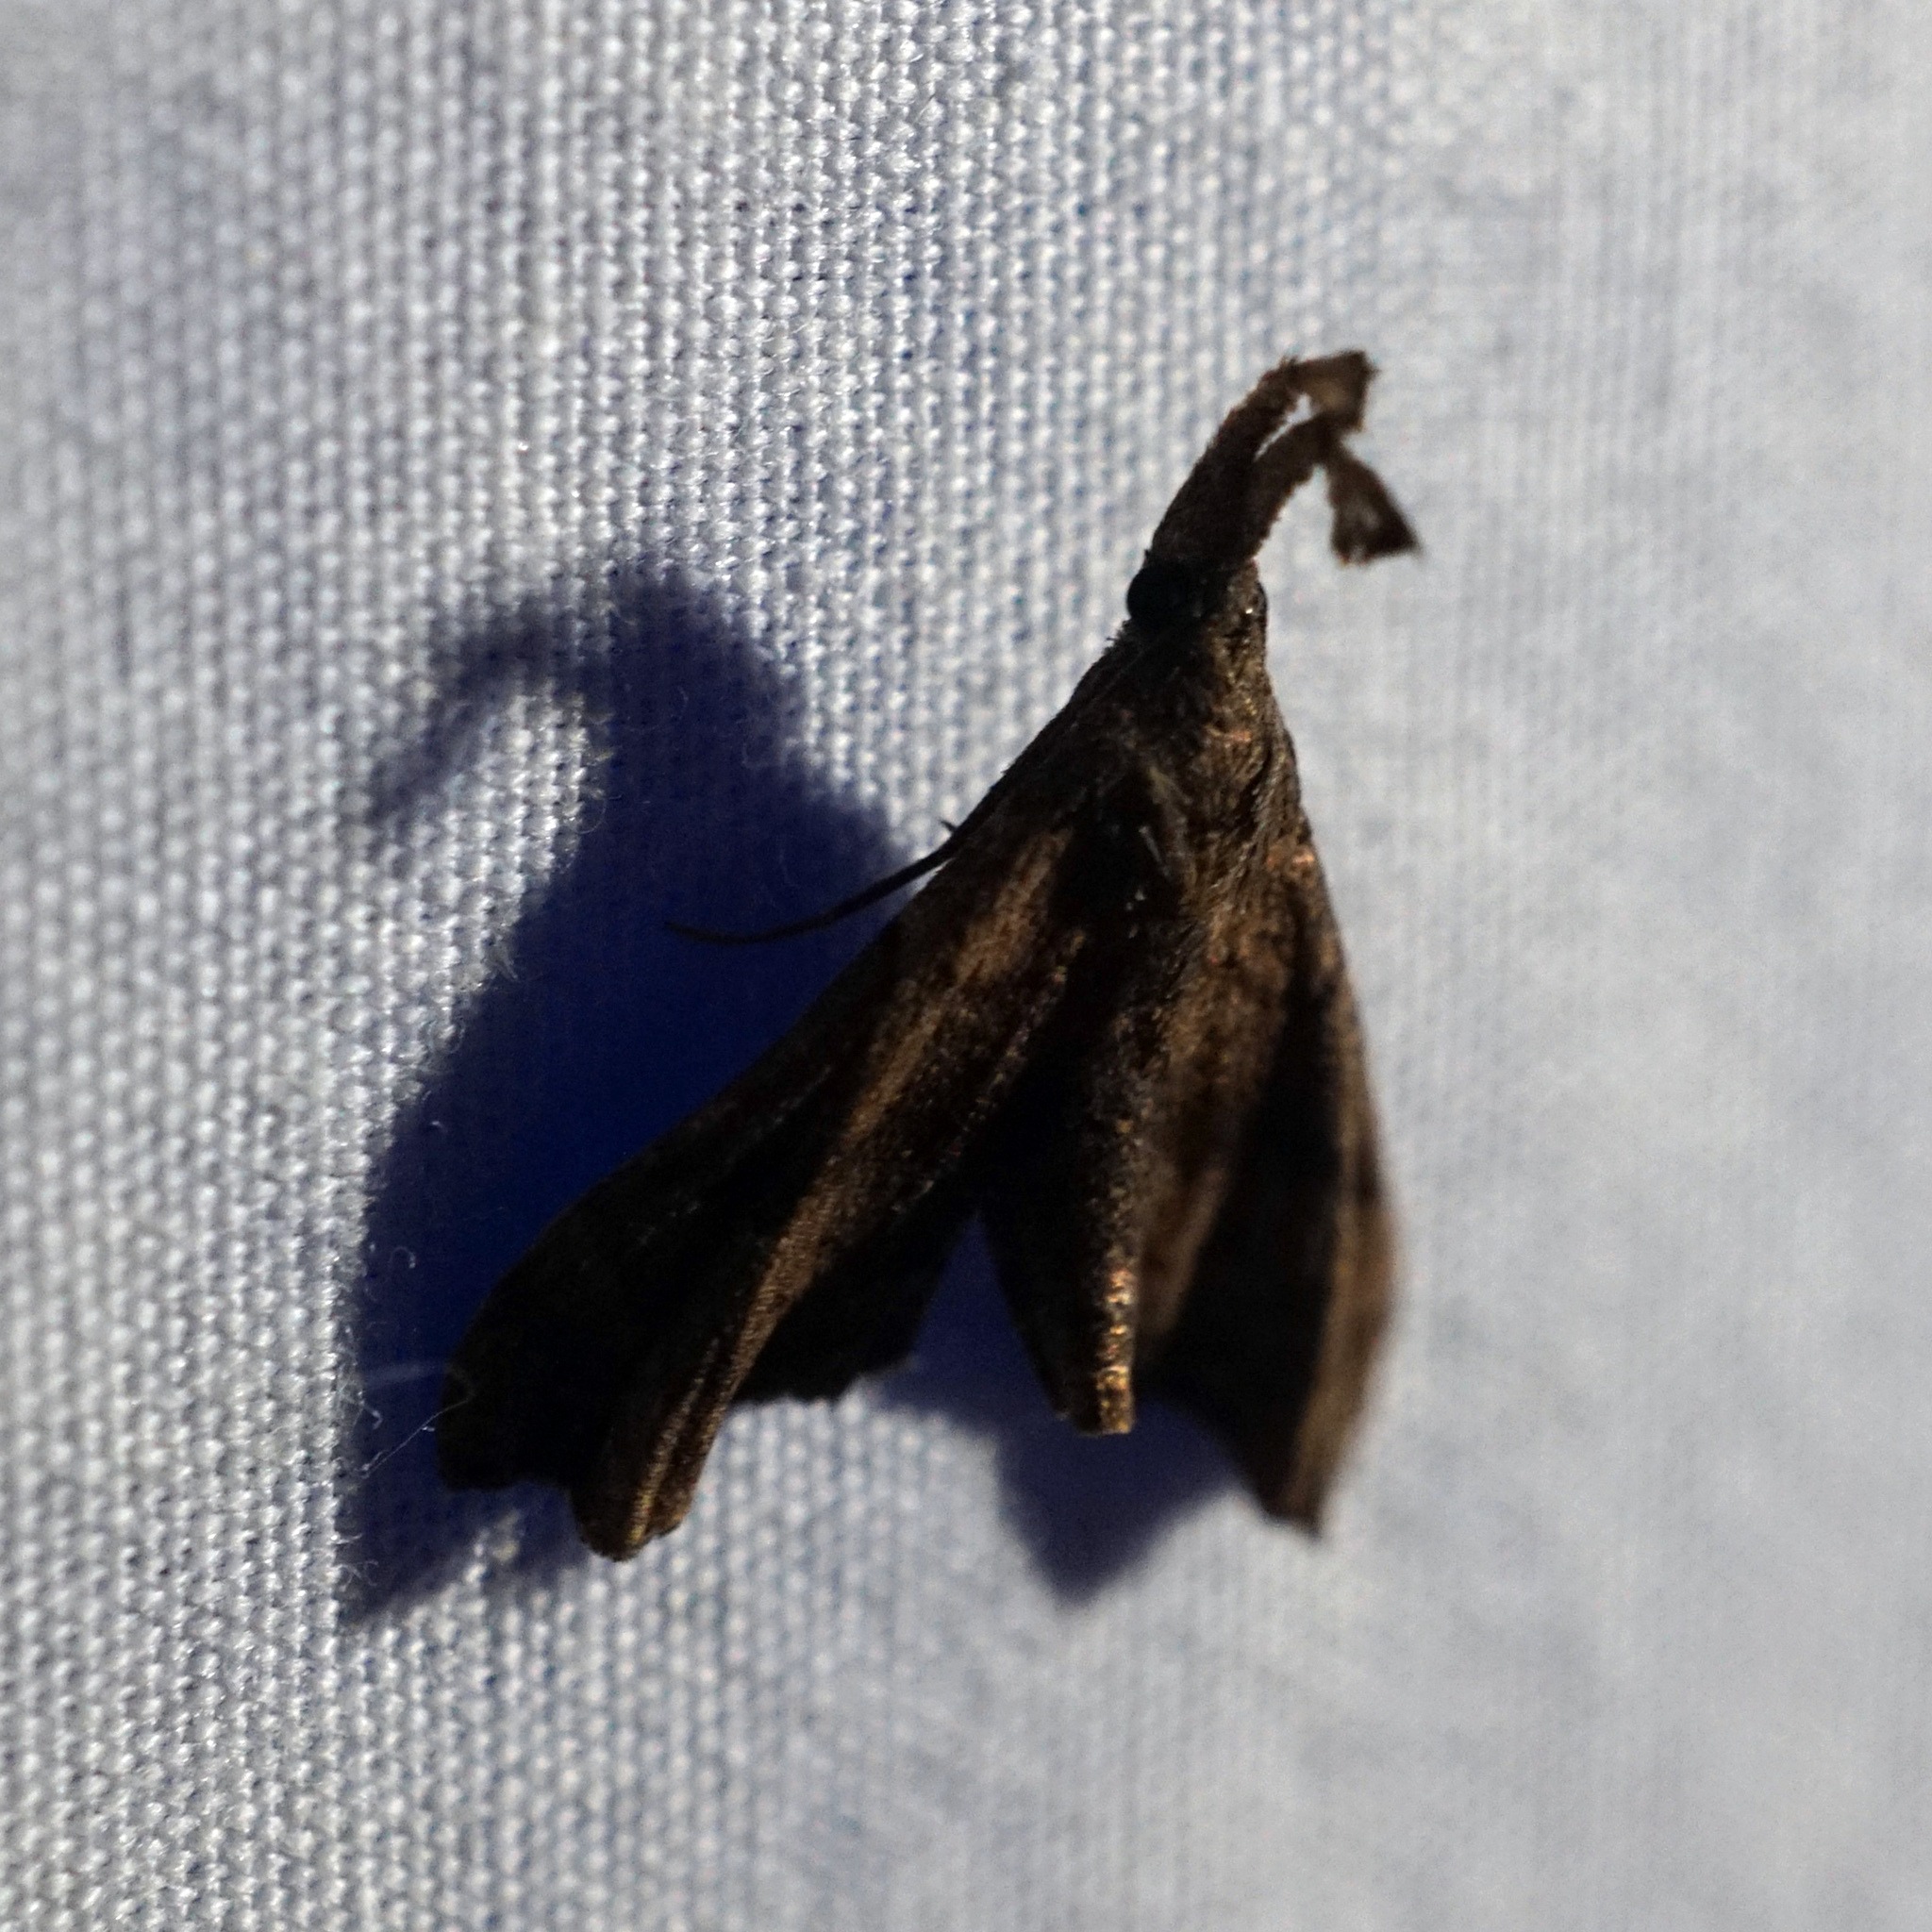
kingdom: Animalia
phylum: Arthropoda
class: Insecta
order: Lepidoptera
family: Erebidae
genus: Palthis
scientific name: Palthis asopialis
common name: Faint-spotted palthis moth
